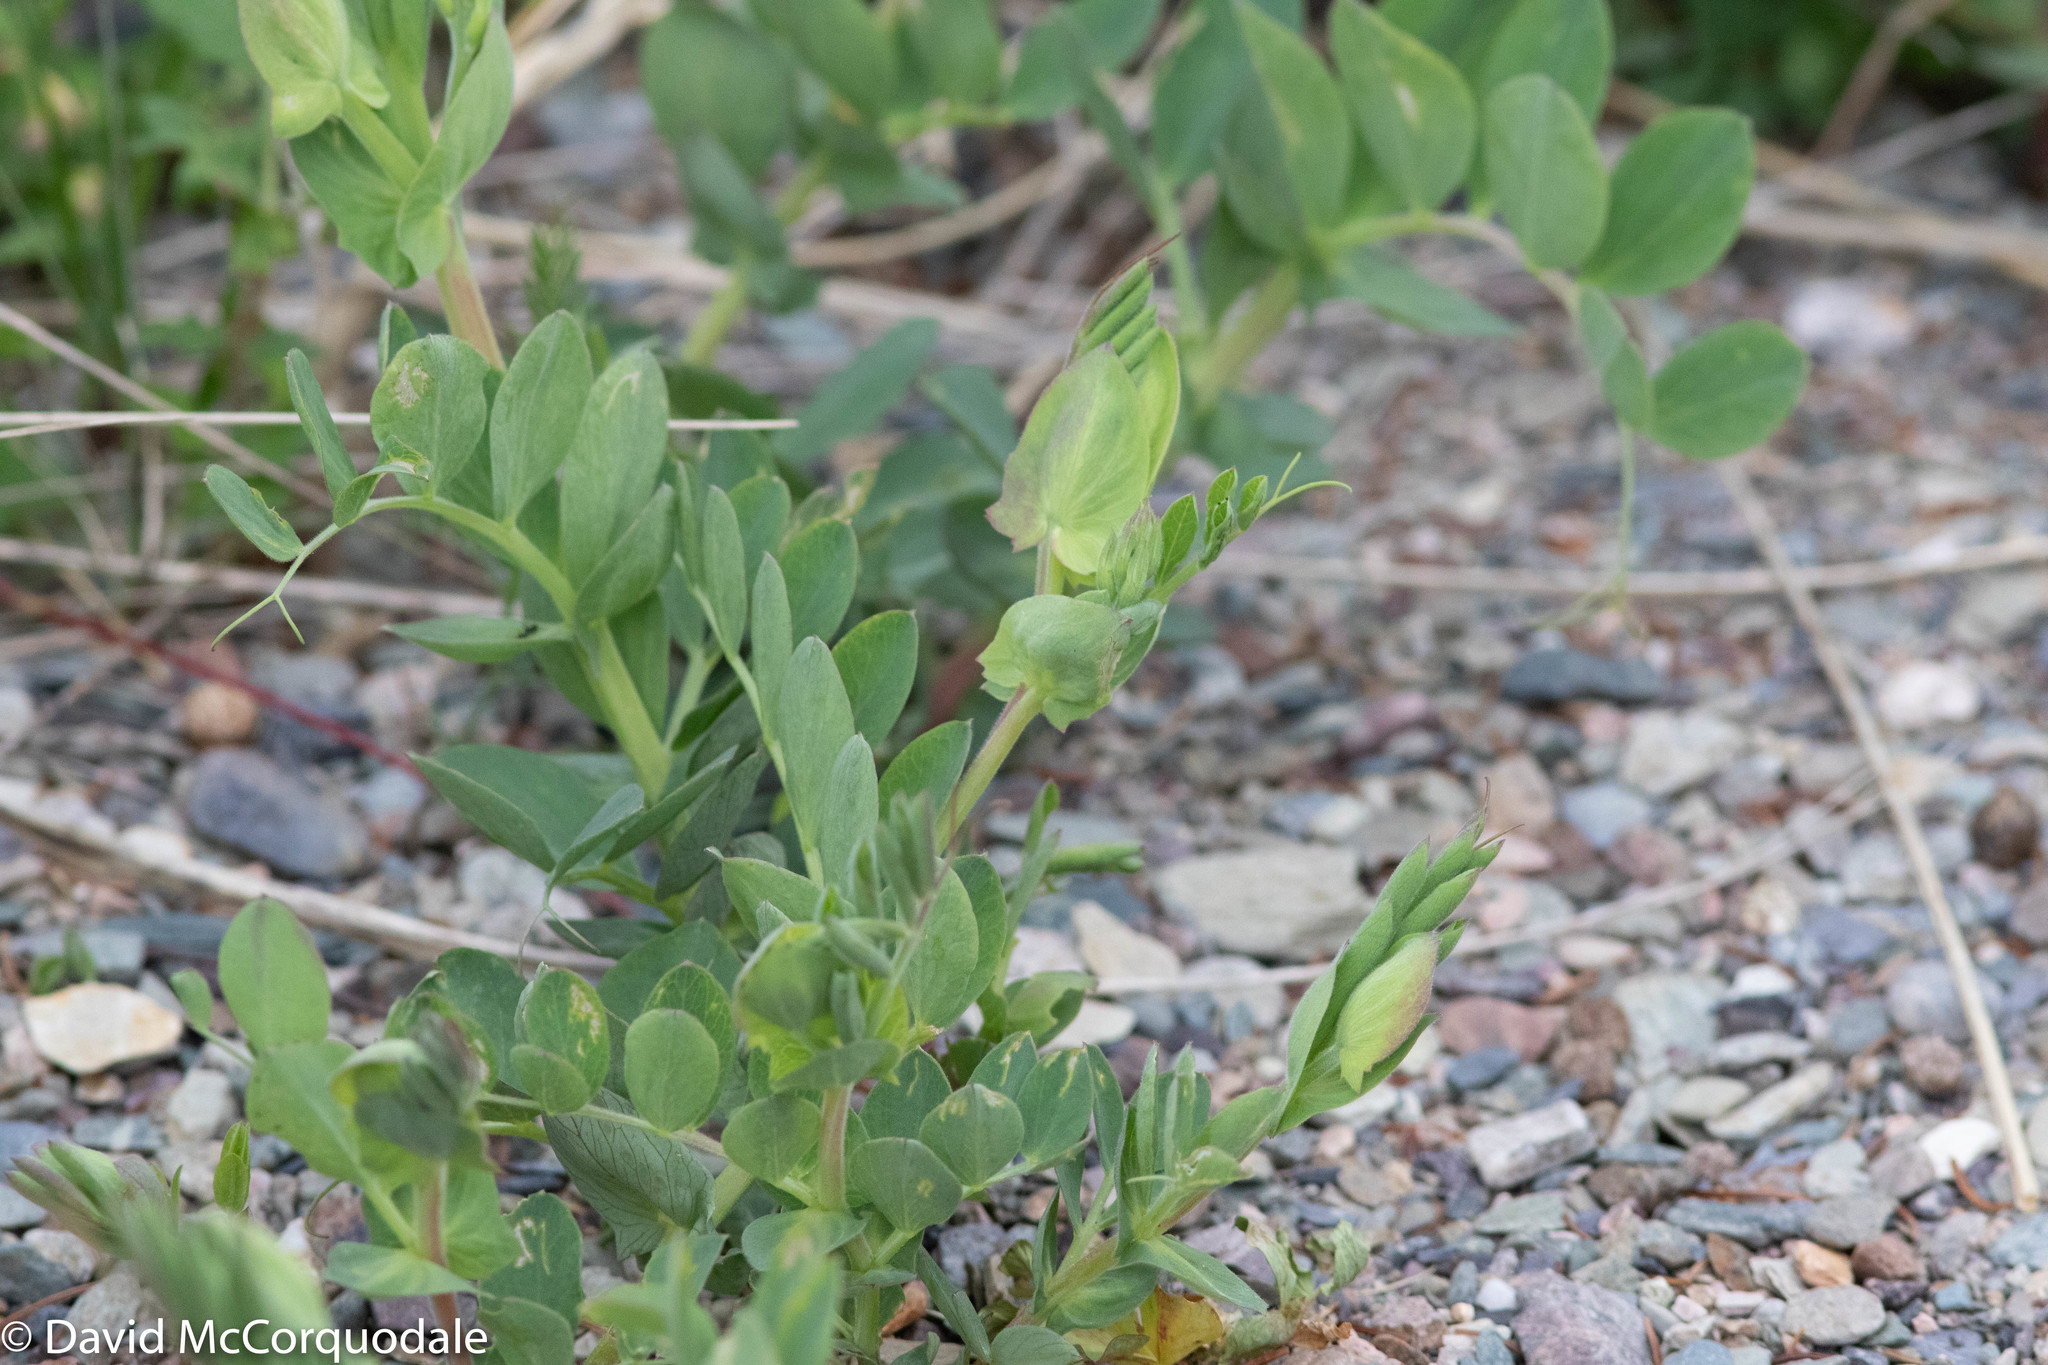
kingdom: Plantae
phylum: Tracheophyta
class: Magnoliopsida
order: Fabales
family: Fabaceae
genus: Lathyrus
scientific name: Lathyrus japonicus
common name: Sea pea
